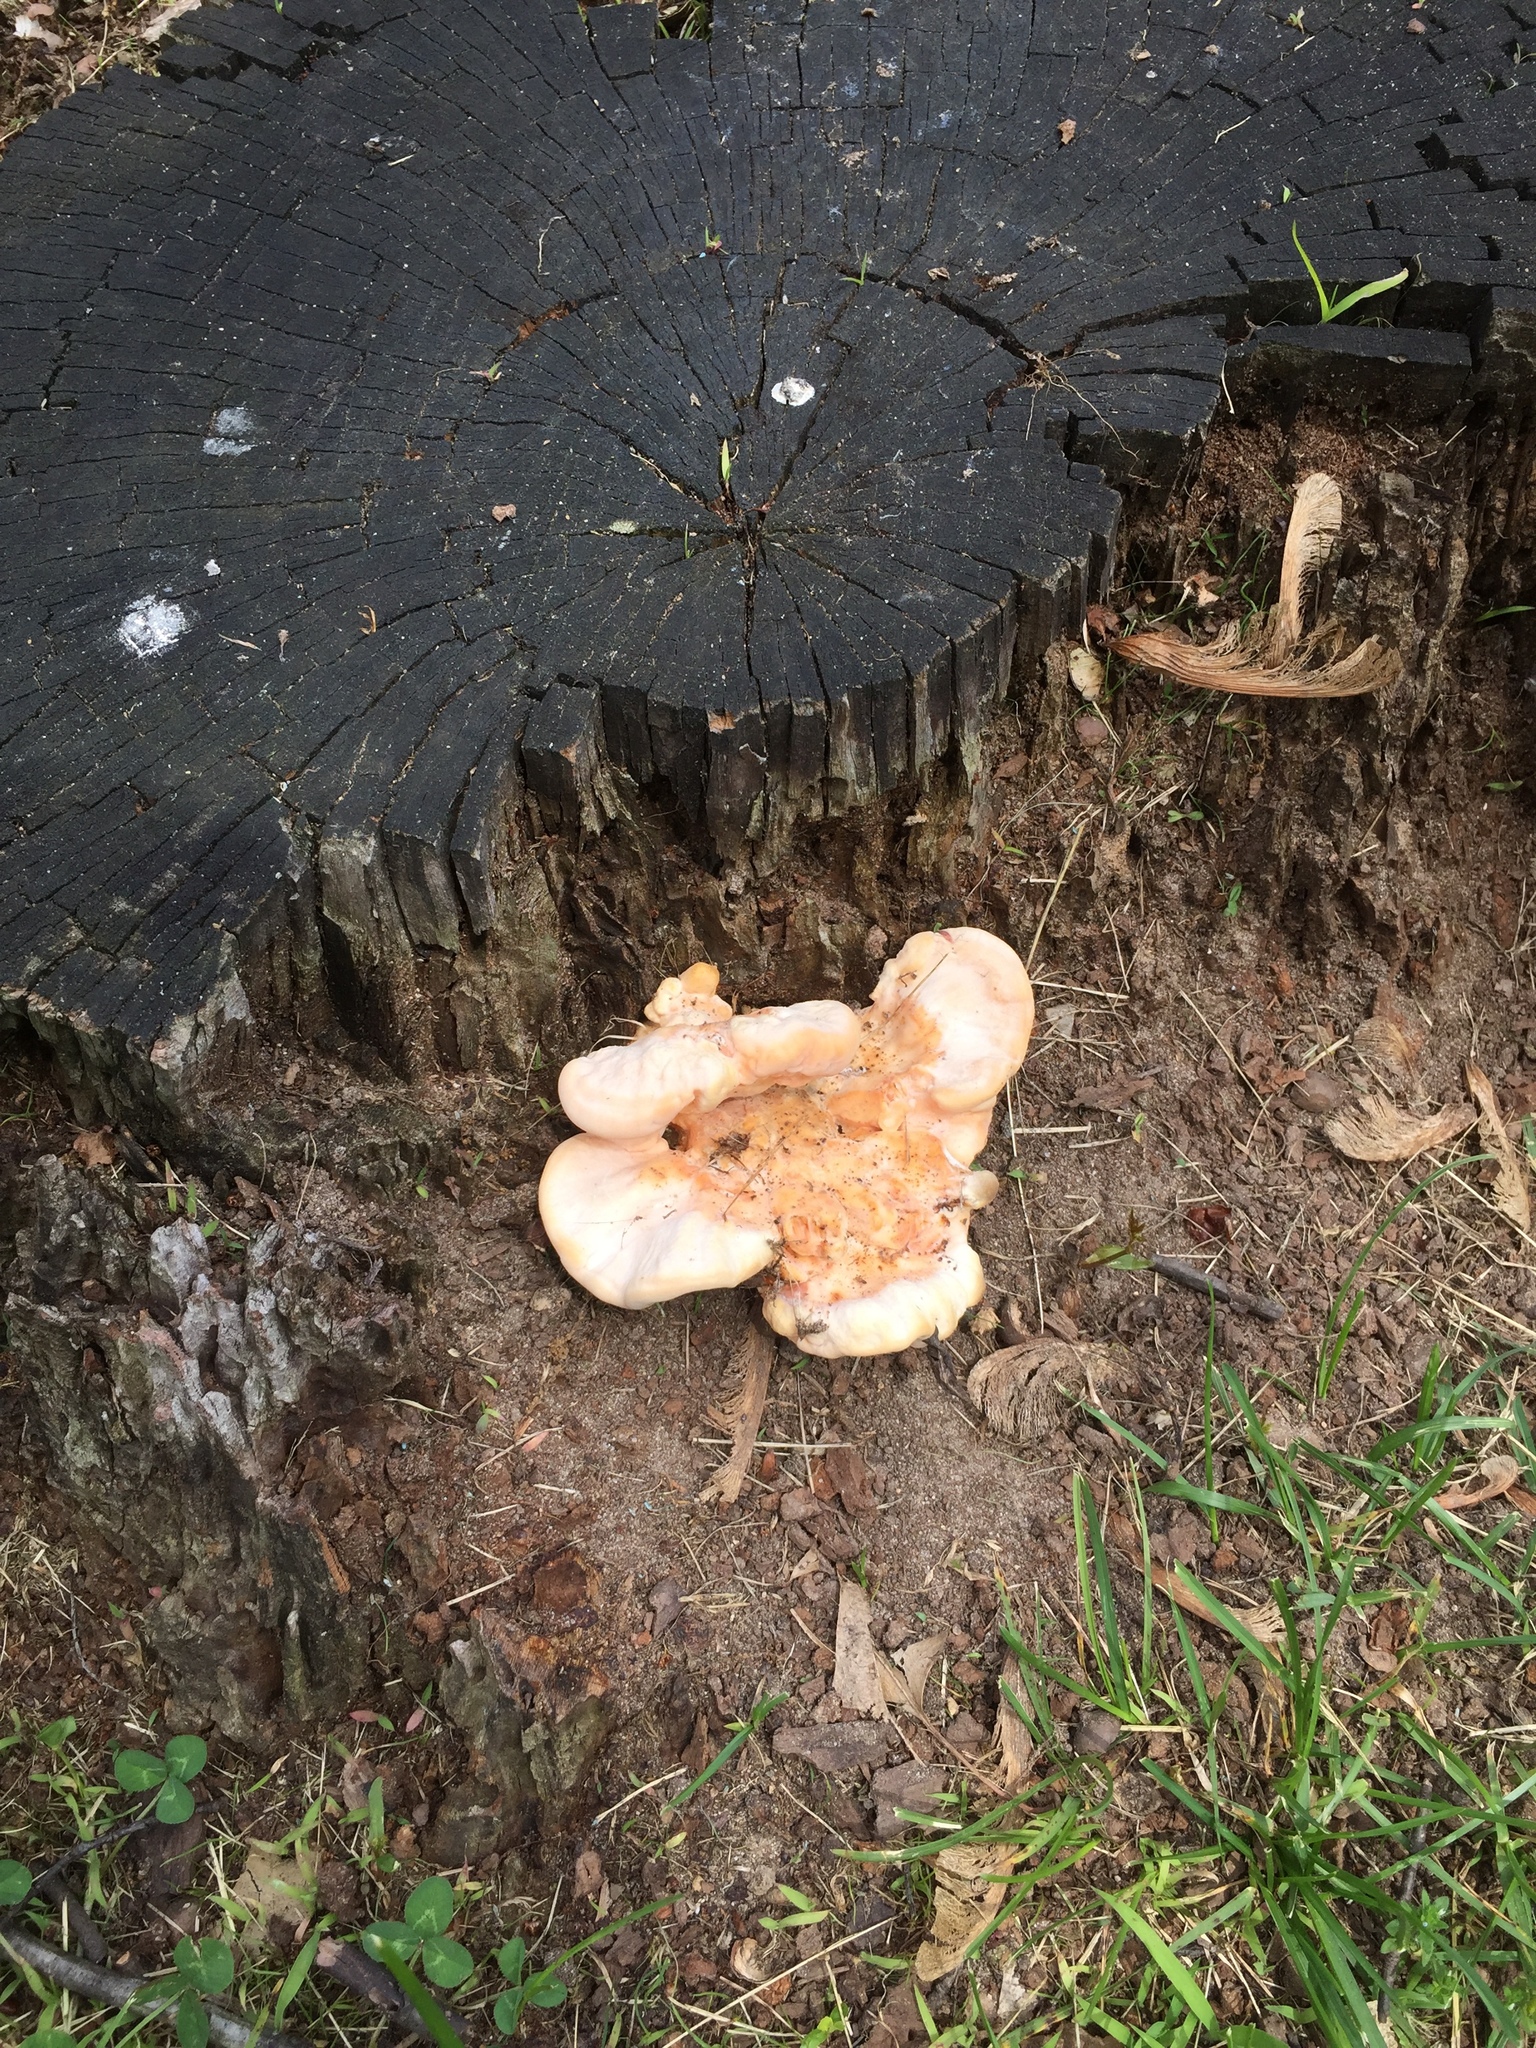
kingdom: Fungi
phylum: Basidiomycota
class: Agaricomycetes
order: Polyporales
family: Laetiporaceae
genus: Laetiporus
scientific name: Laetiporus sulphureus
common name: Chicken of the woods
